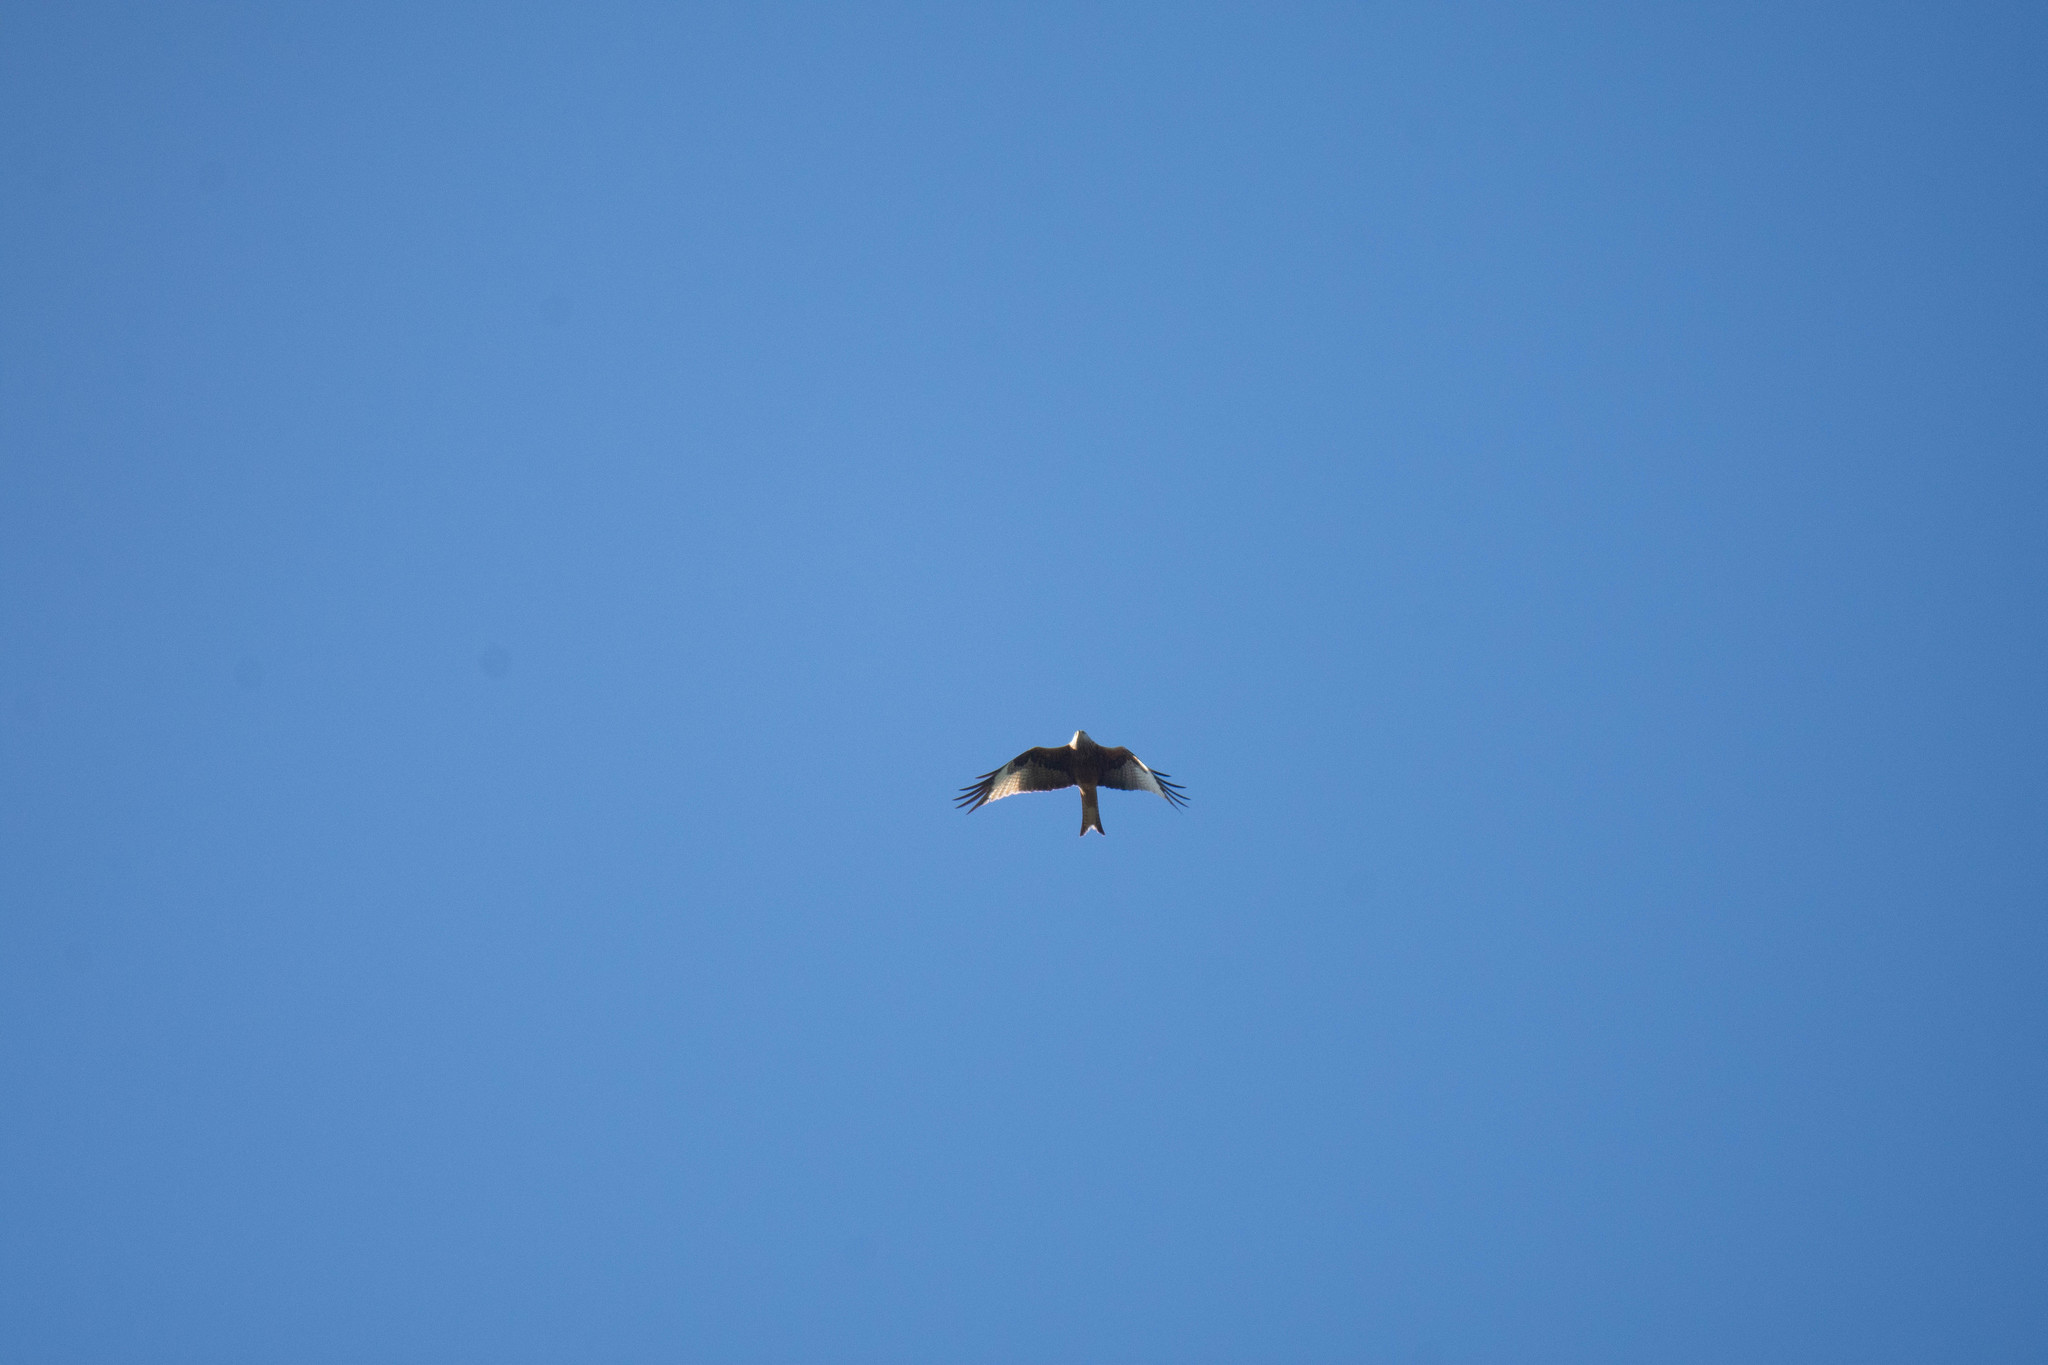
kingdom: Animalia
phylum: Chordata
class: Aves
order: Accipitriformes
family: Accipitridae
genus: Milvus
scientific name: Milvus milvus
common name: Red kite
